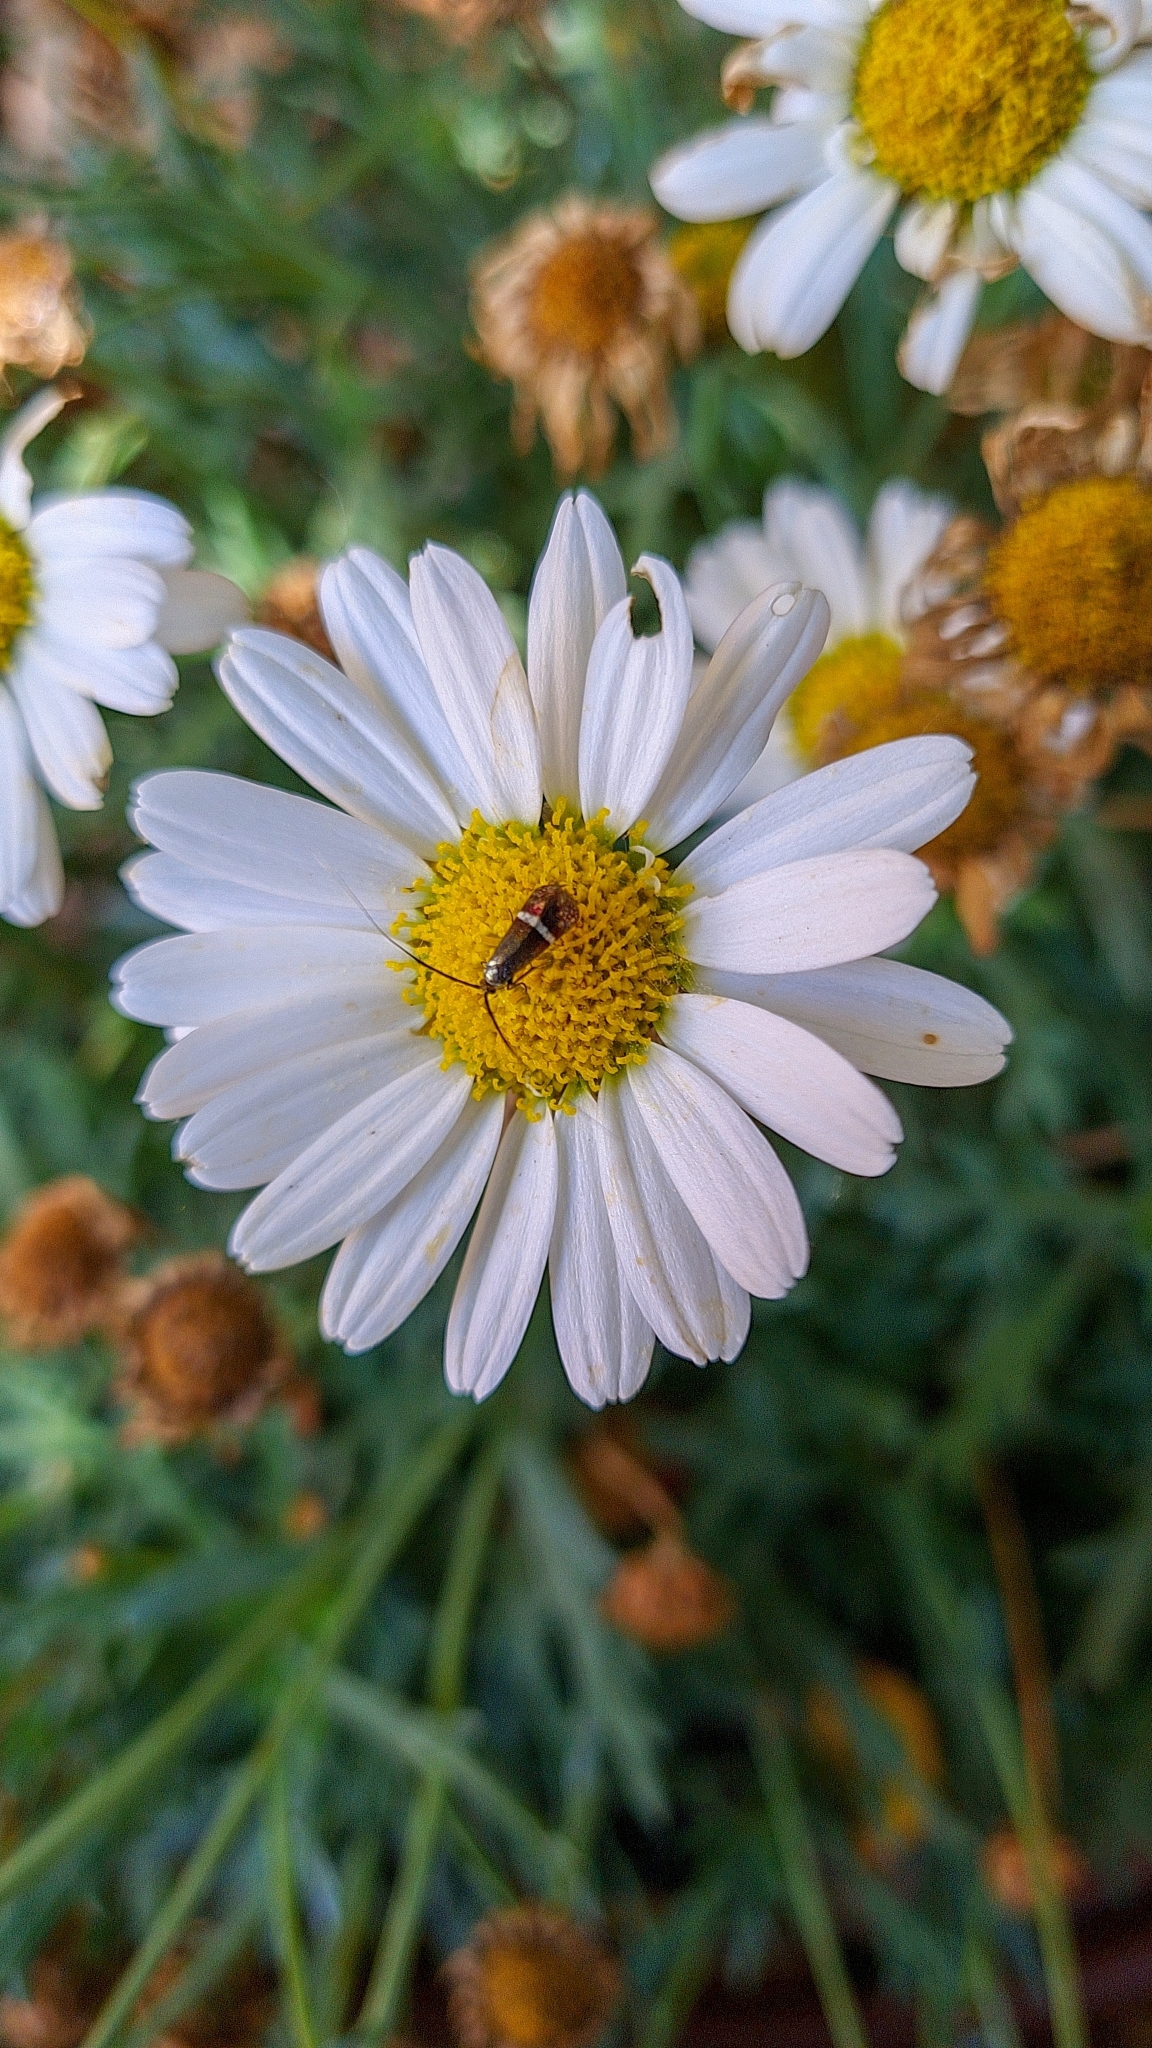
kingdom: Animalia
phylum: Arthropoda
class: Insecta
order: Lepidoptera
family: Adelidae
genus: Adela
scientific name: Adela australis
